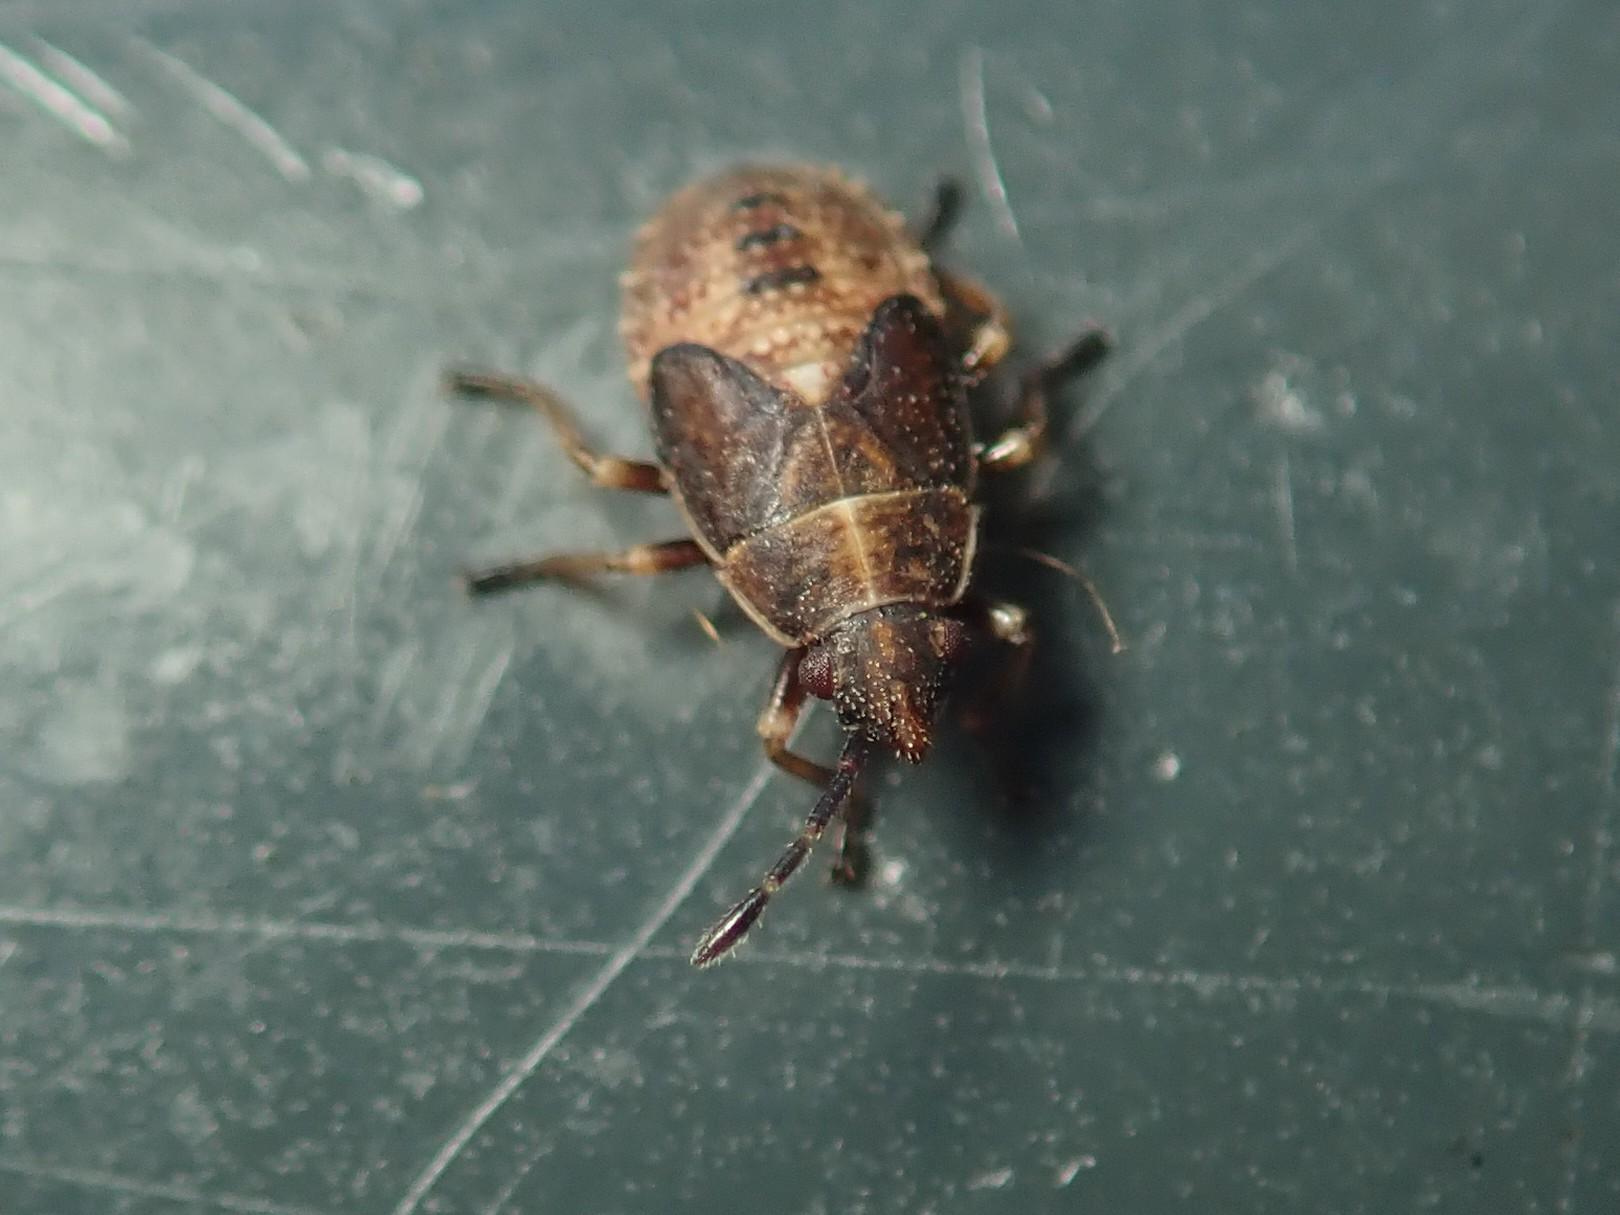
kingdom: Animalia
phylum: Arthropoda
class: Insecta
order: Hemiptera
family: Lygaeidae
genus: Kleidocerys
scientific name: Kleidocerys resedae
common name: Birch catkin bug
